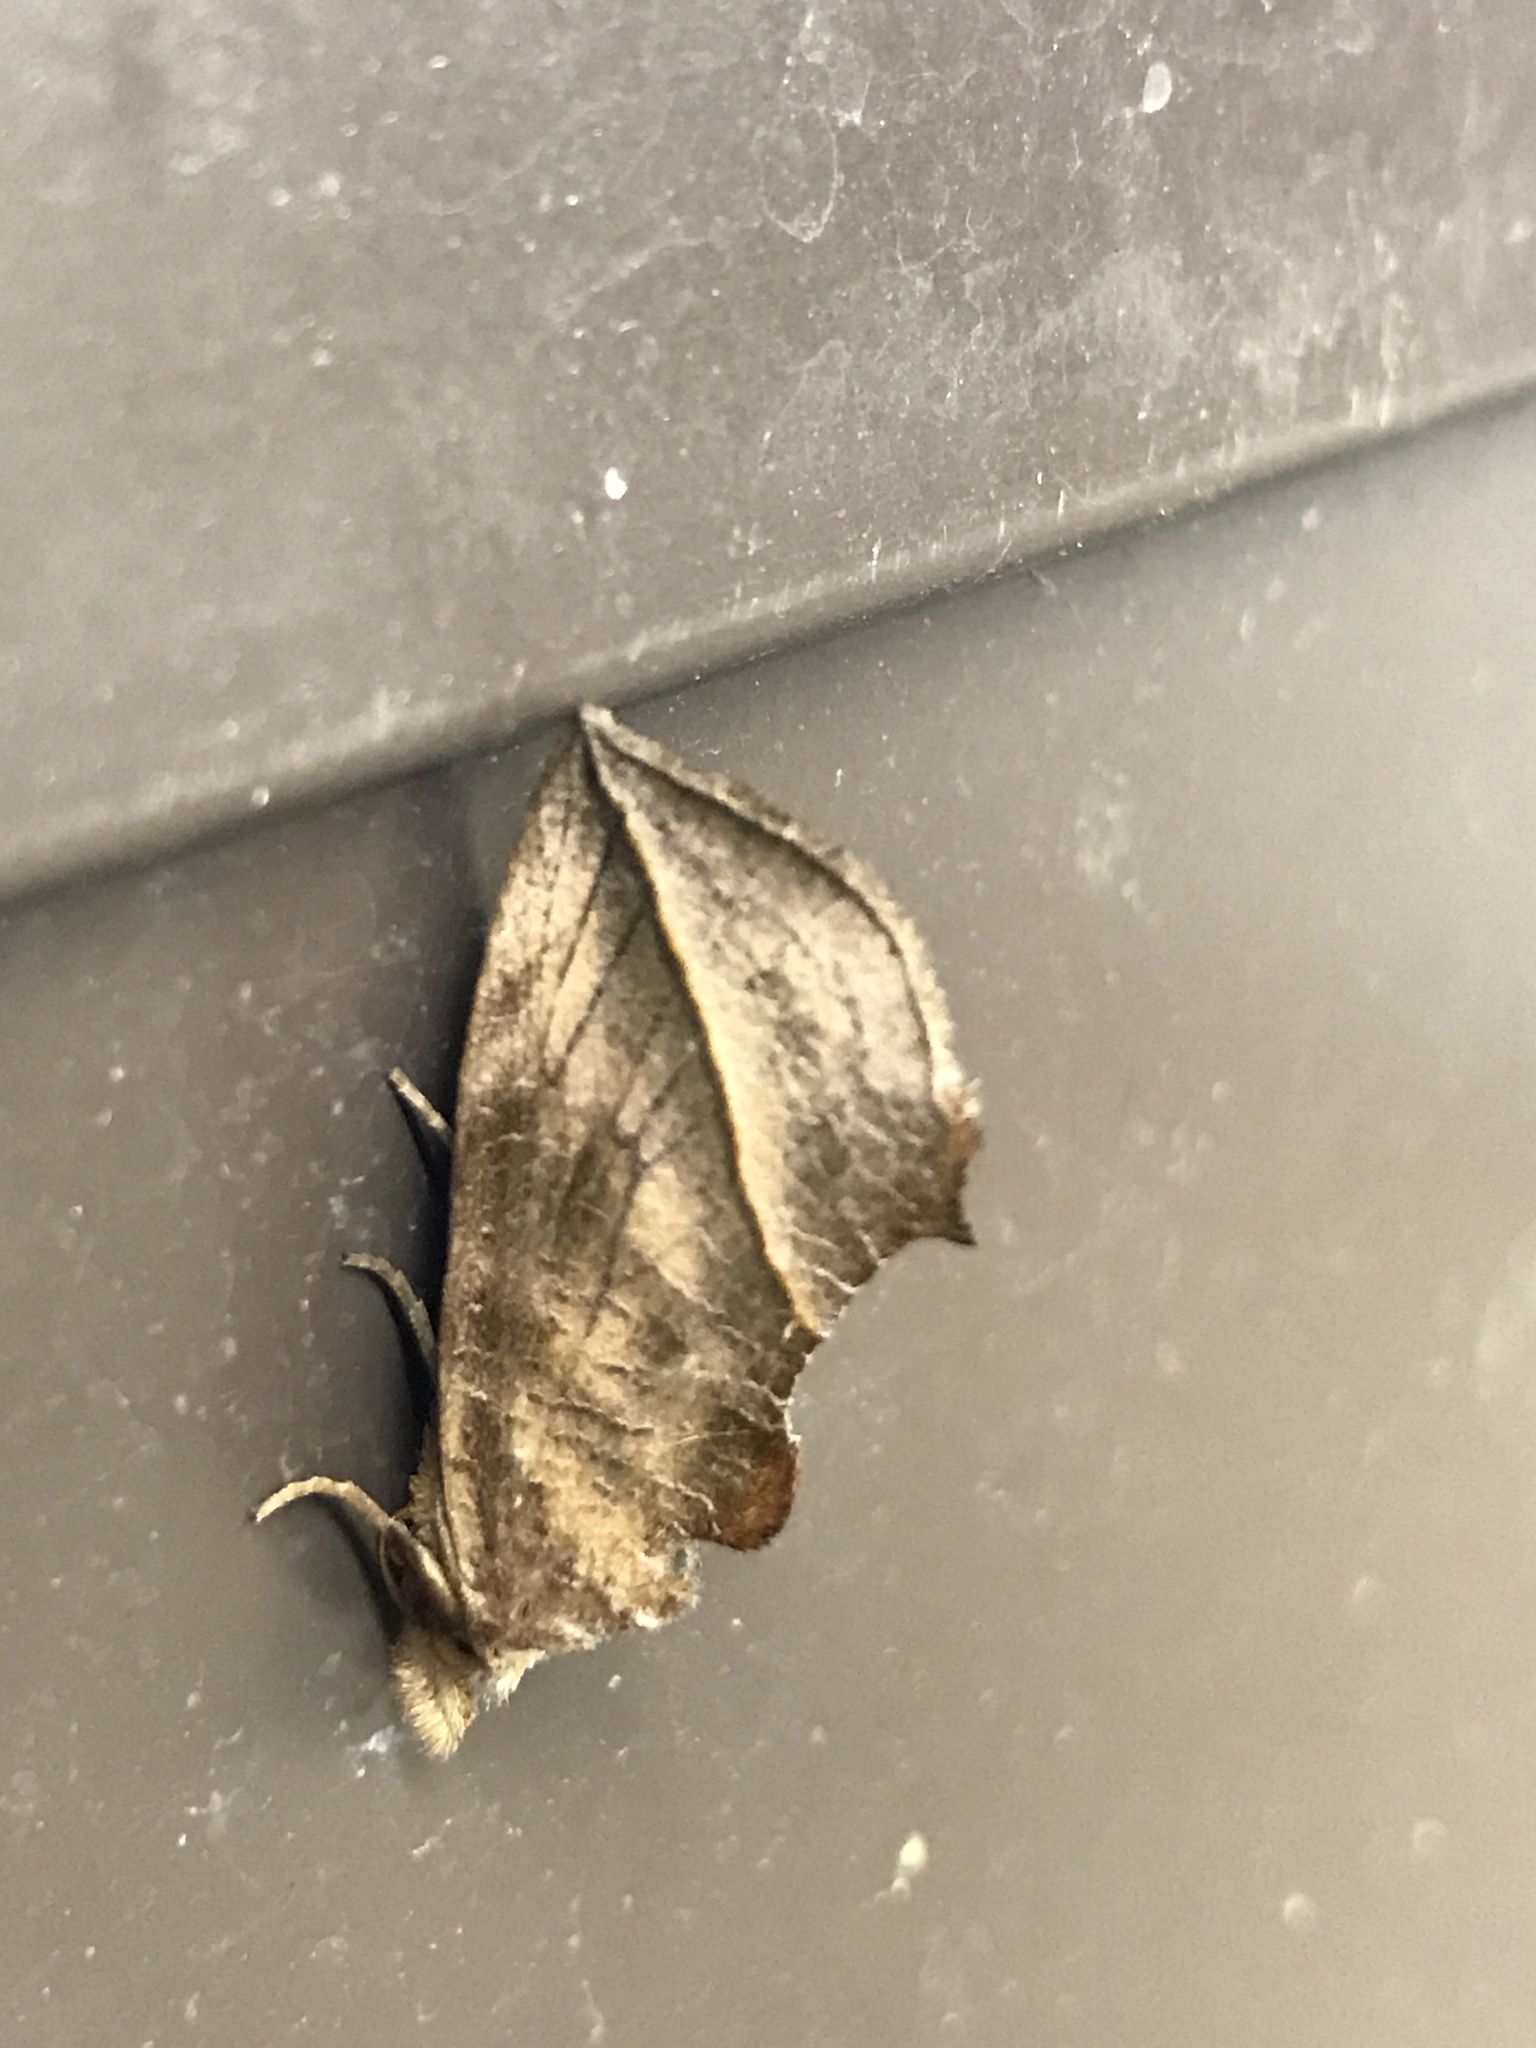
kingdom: Animalia
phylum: Arthropoda
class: Insecta
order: Lepidoptera
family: Erebidae
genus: Calyptra
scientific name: Calyptra canadensis
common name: Canadian owlet
